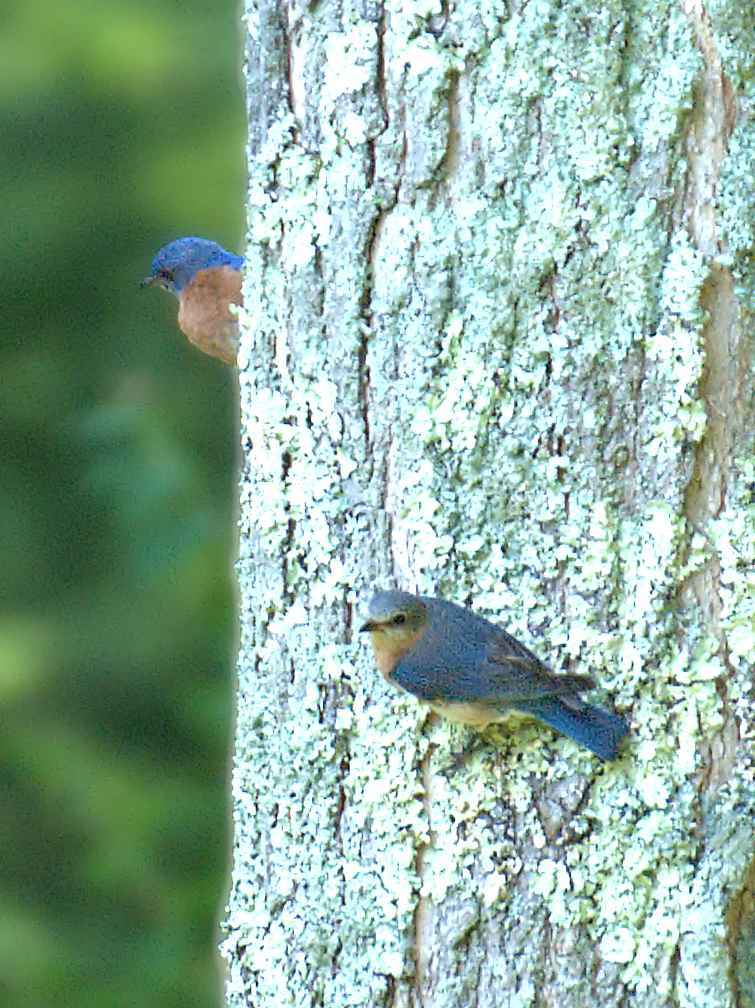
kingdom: Animalia
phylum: Chordata
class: Aves
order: Passeriformes
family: Turdidae
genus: Sialia
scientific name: Sialia sialis
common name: Eastern bluebird
